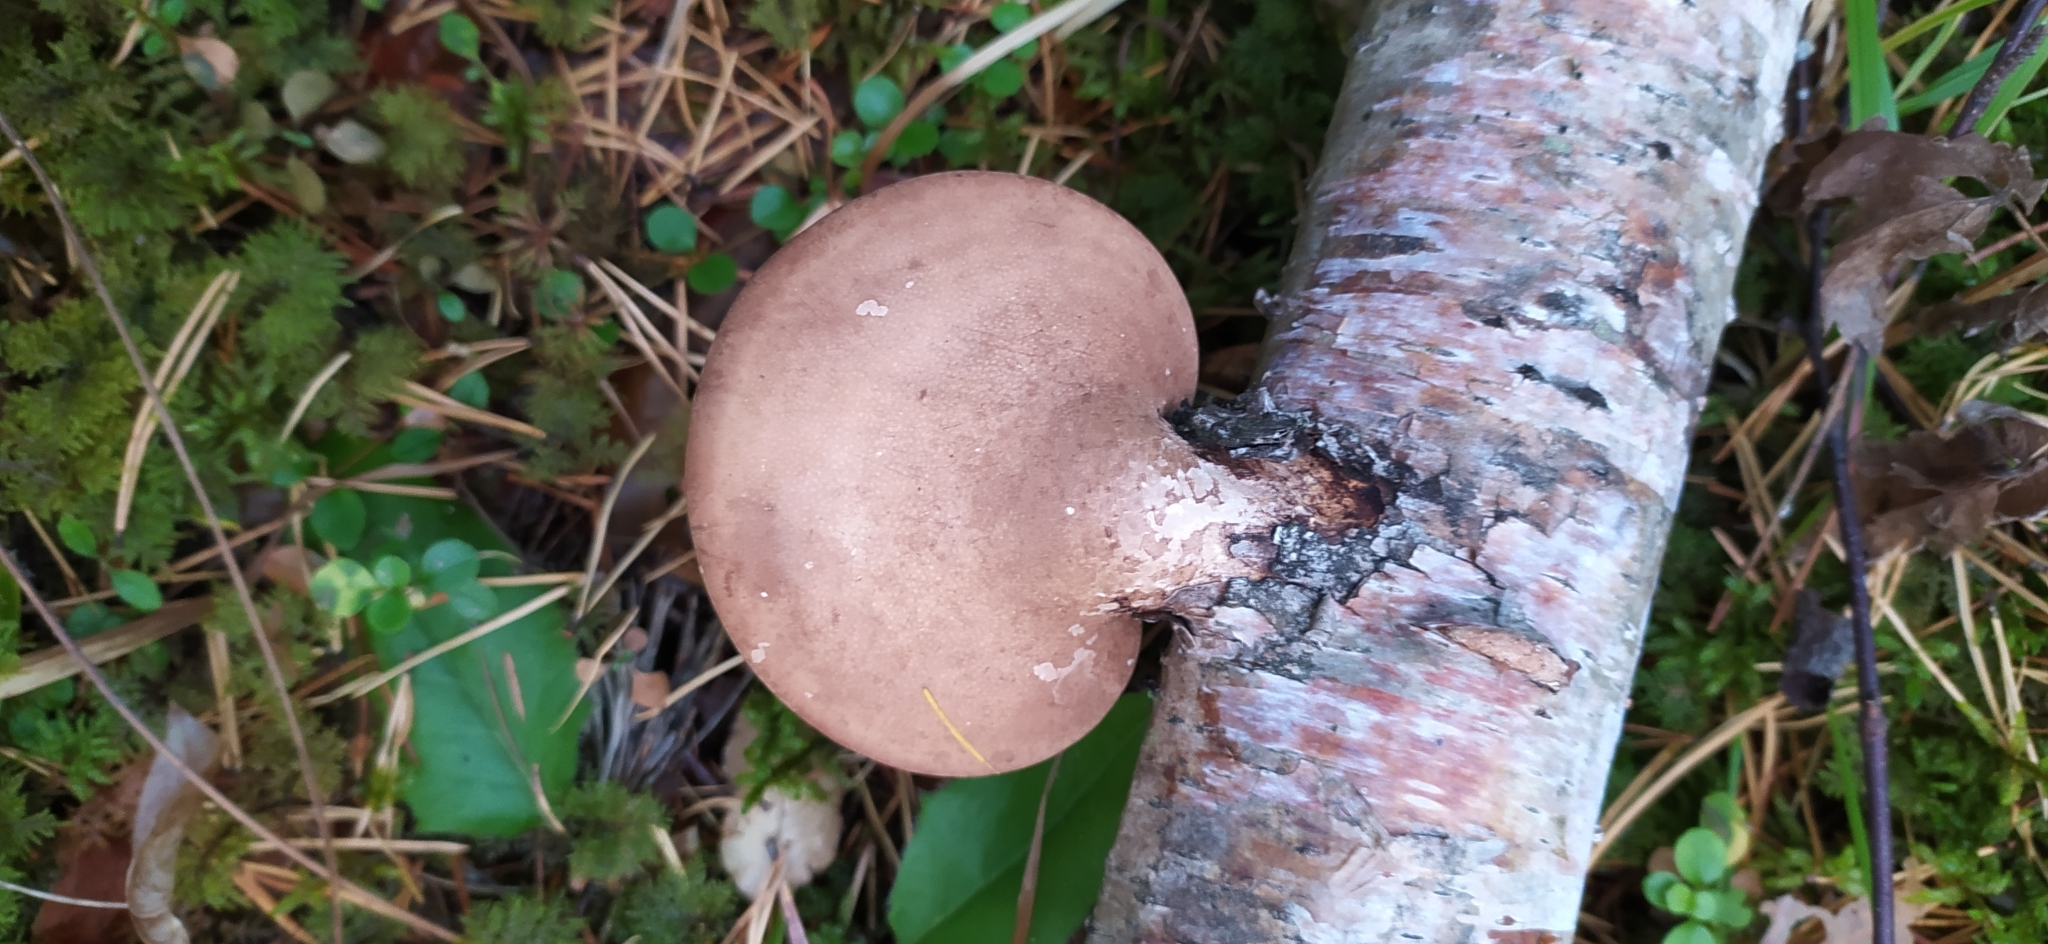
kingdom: Fungi
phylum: Basidiomycota
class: Agaricomycetes
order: Polyporales
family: Fomitopsidaceae
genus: Fomitopsis
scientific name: Fomitopsis betulina
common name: Birch polypore
